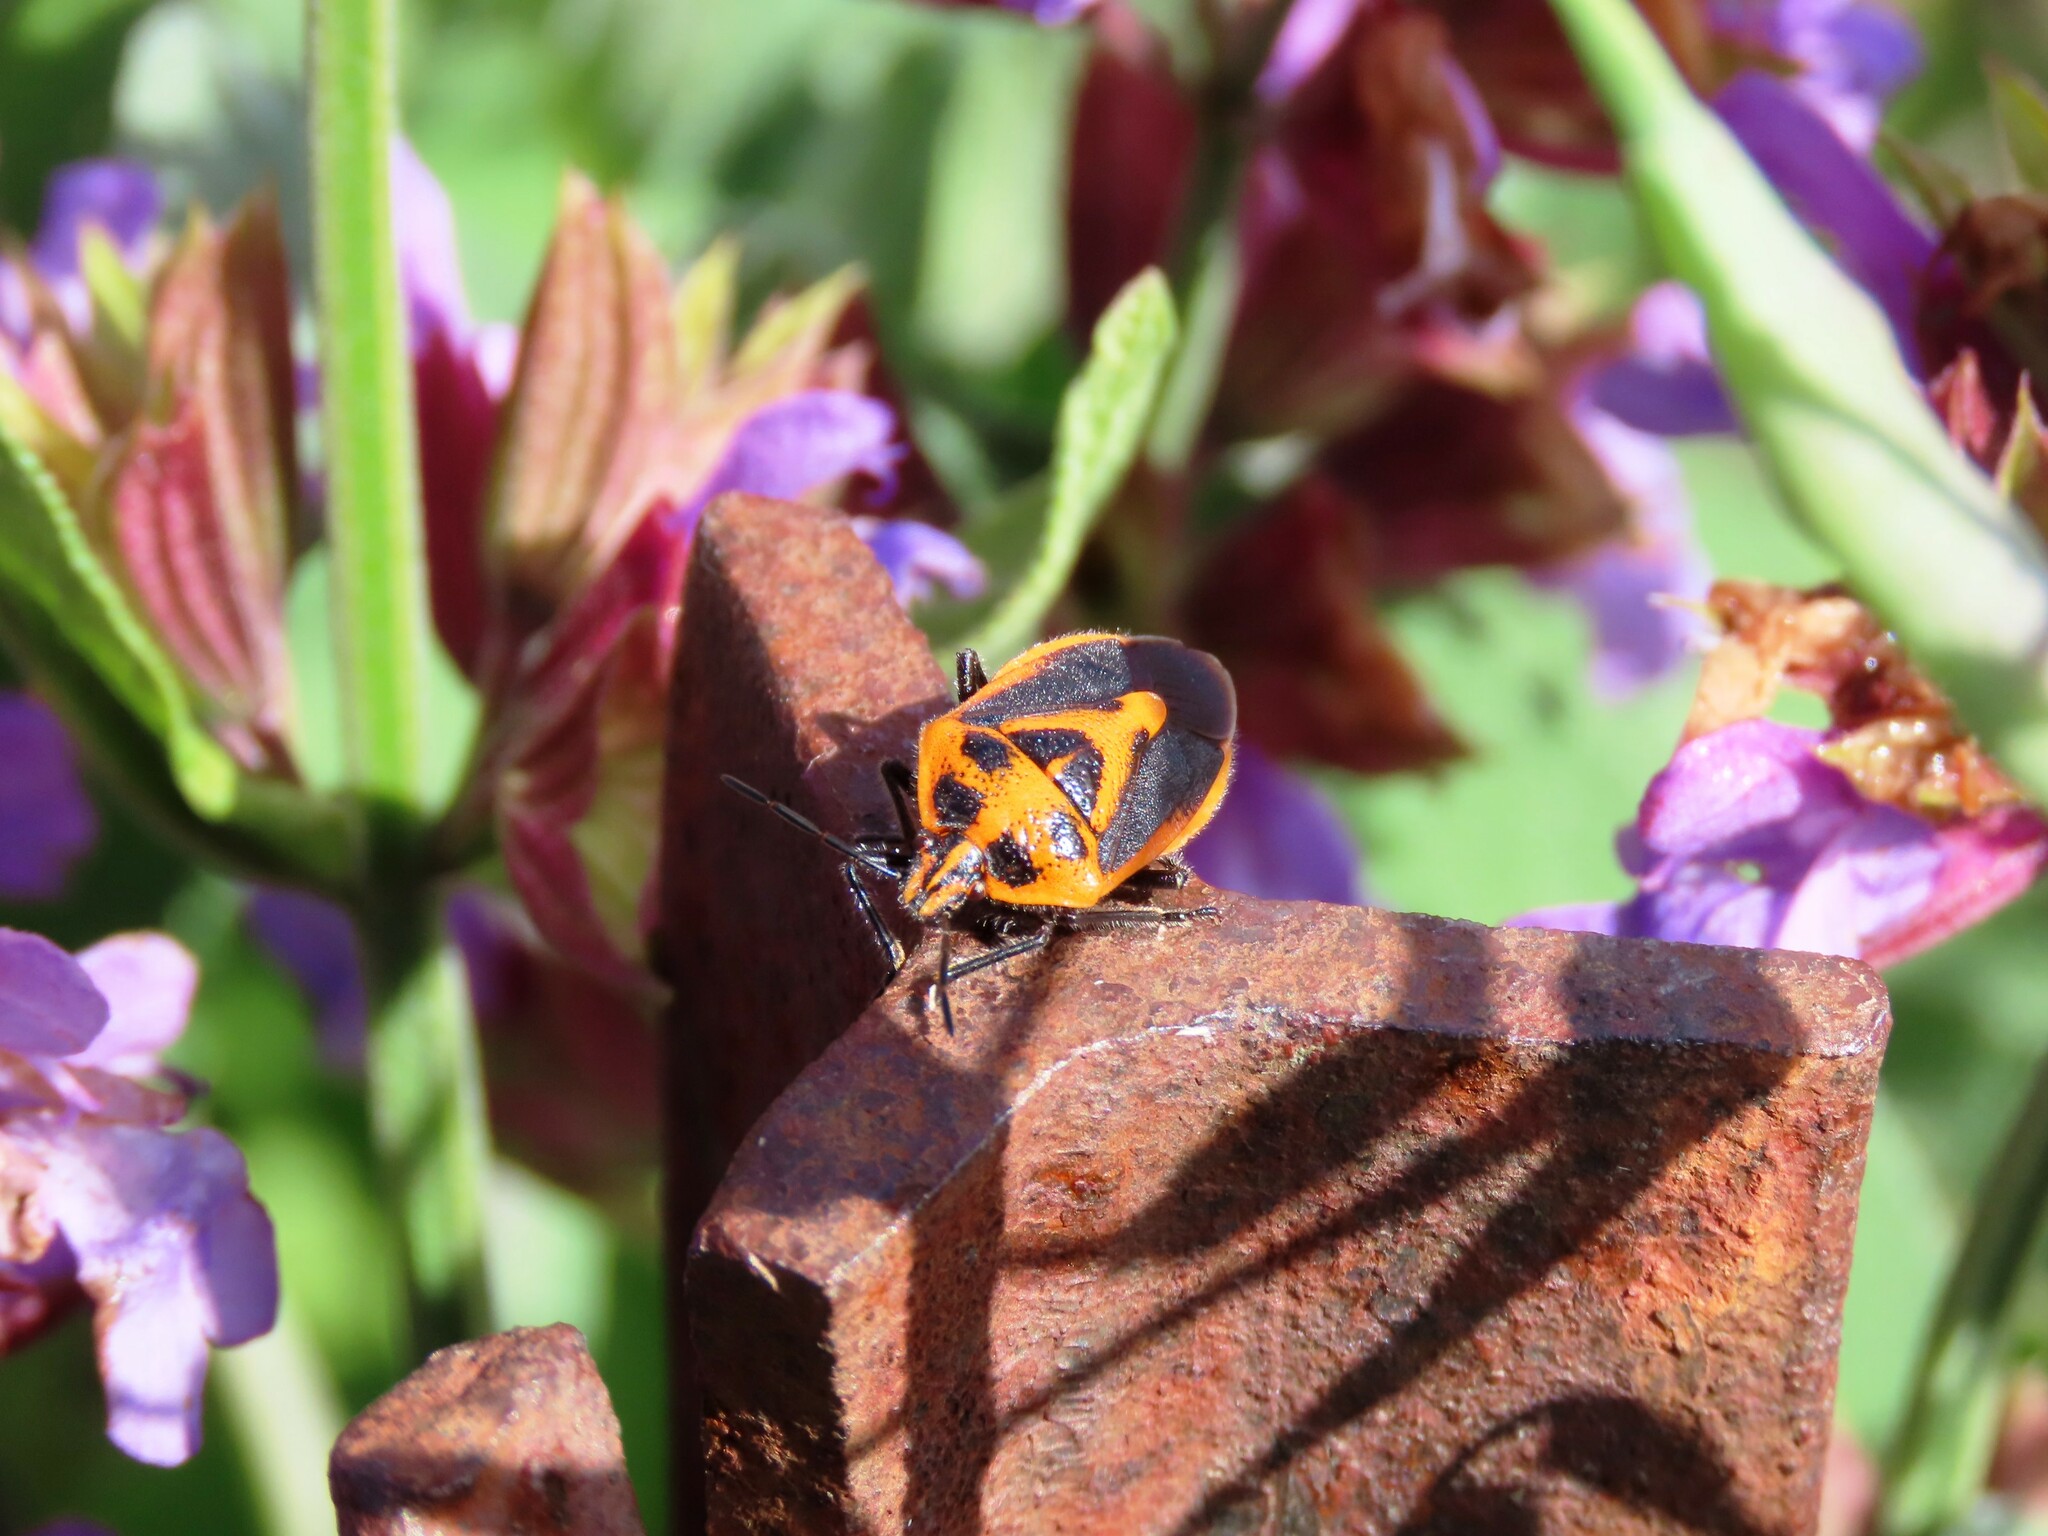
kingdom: Animalia
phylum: Arthropoda
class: Insecta
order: Hemiptera
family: Pentatomidae
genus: Agonoscelis
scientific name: Agonoscelis rutila
